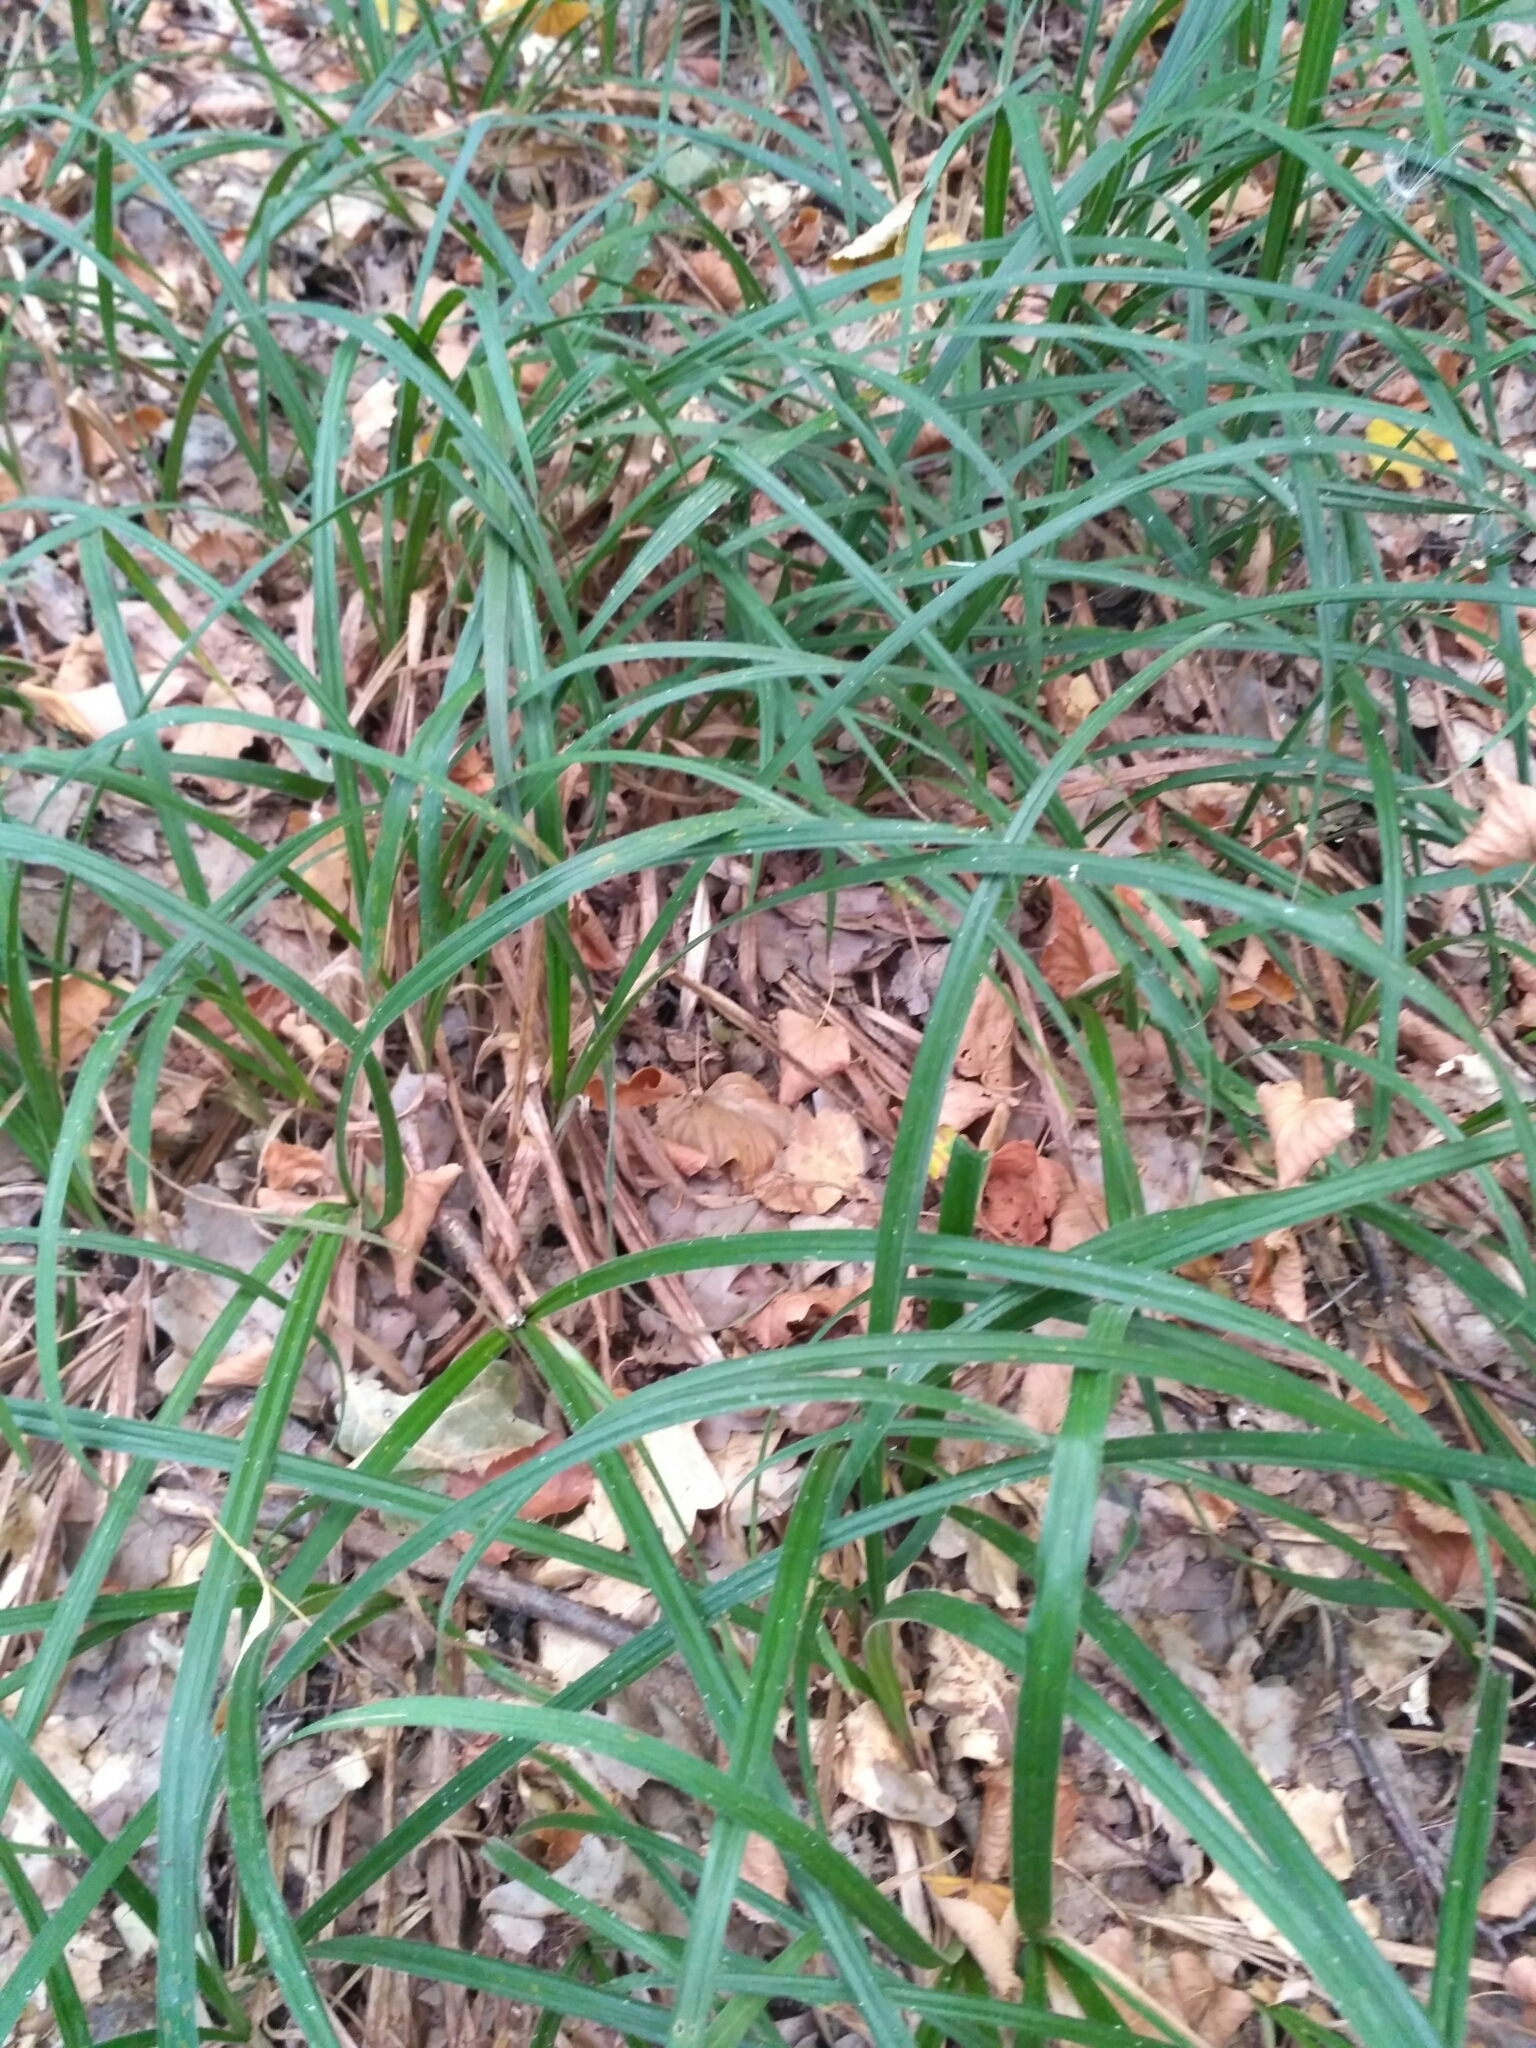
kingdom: Plantae
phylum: Tracheophyta
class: Liliopsida
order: Poales
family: Cyperaceae
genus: Carex
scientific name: Carex pilosa
